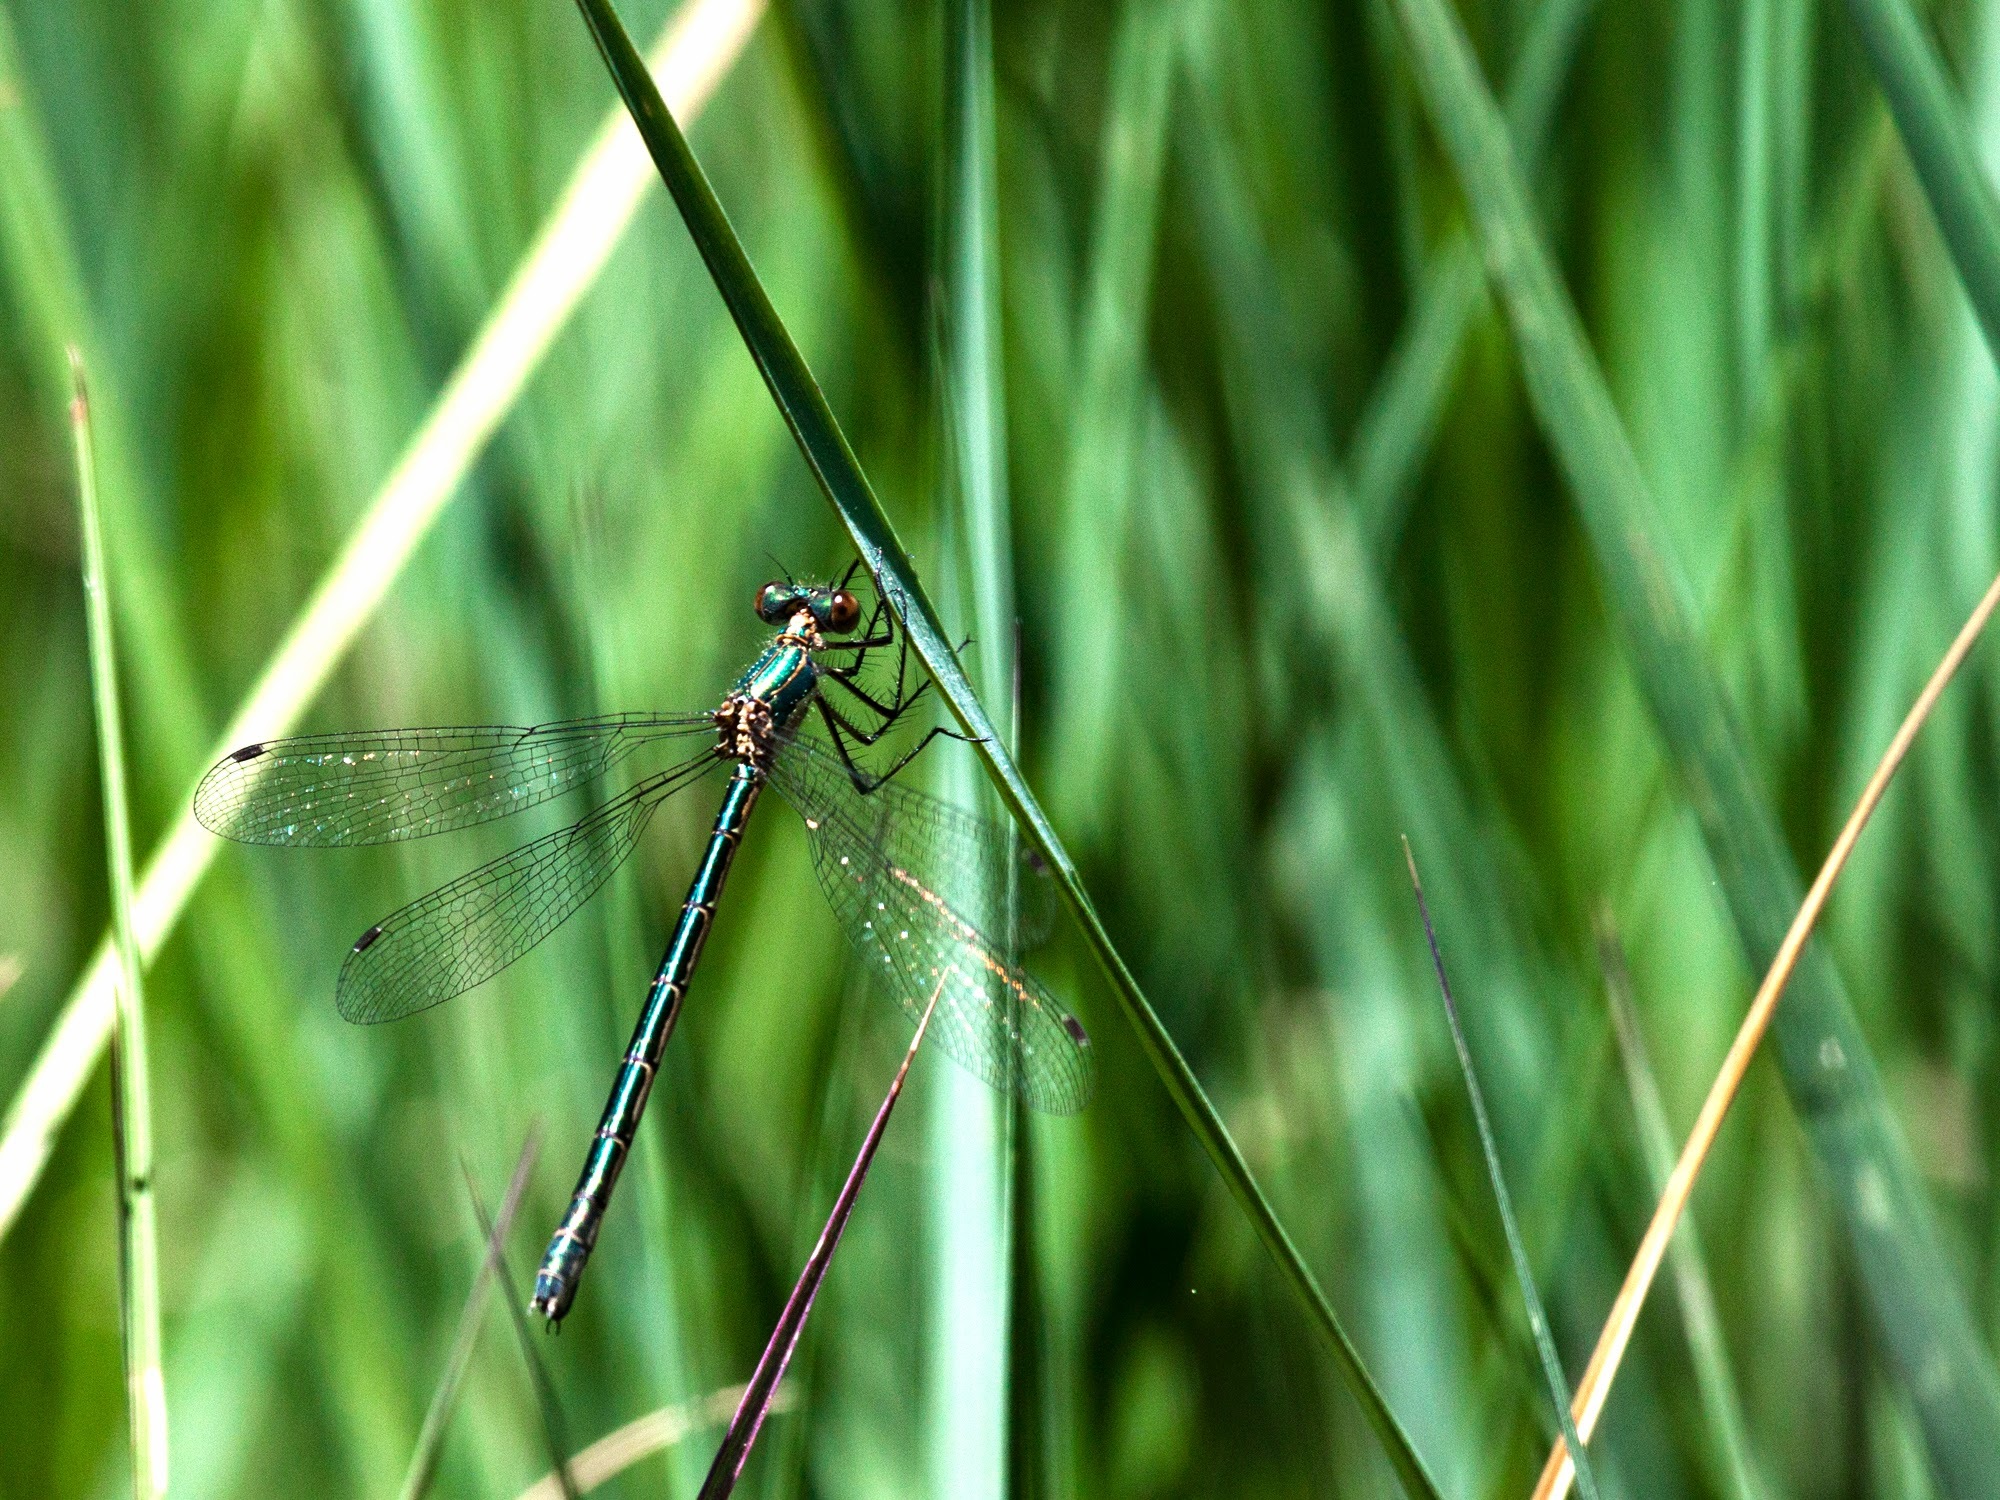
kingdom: Animalia
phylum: Arthropoda
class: Insecta
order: Odonata
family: Lestidae
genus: Lestes
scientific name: Lestes dryas
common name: Scarce emerald damselfly
